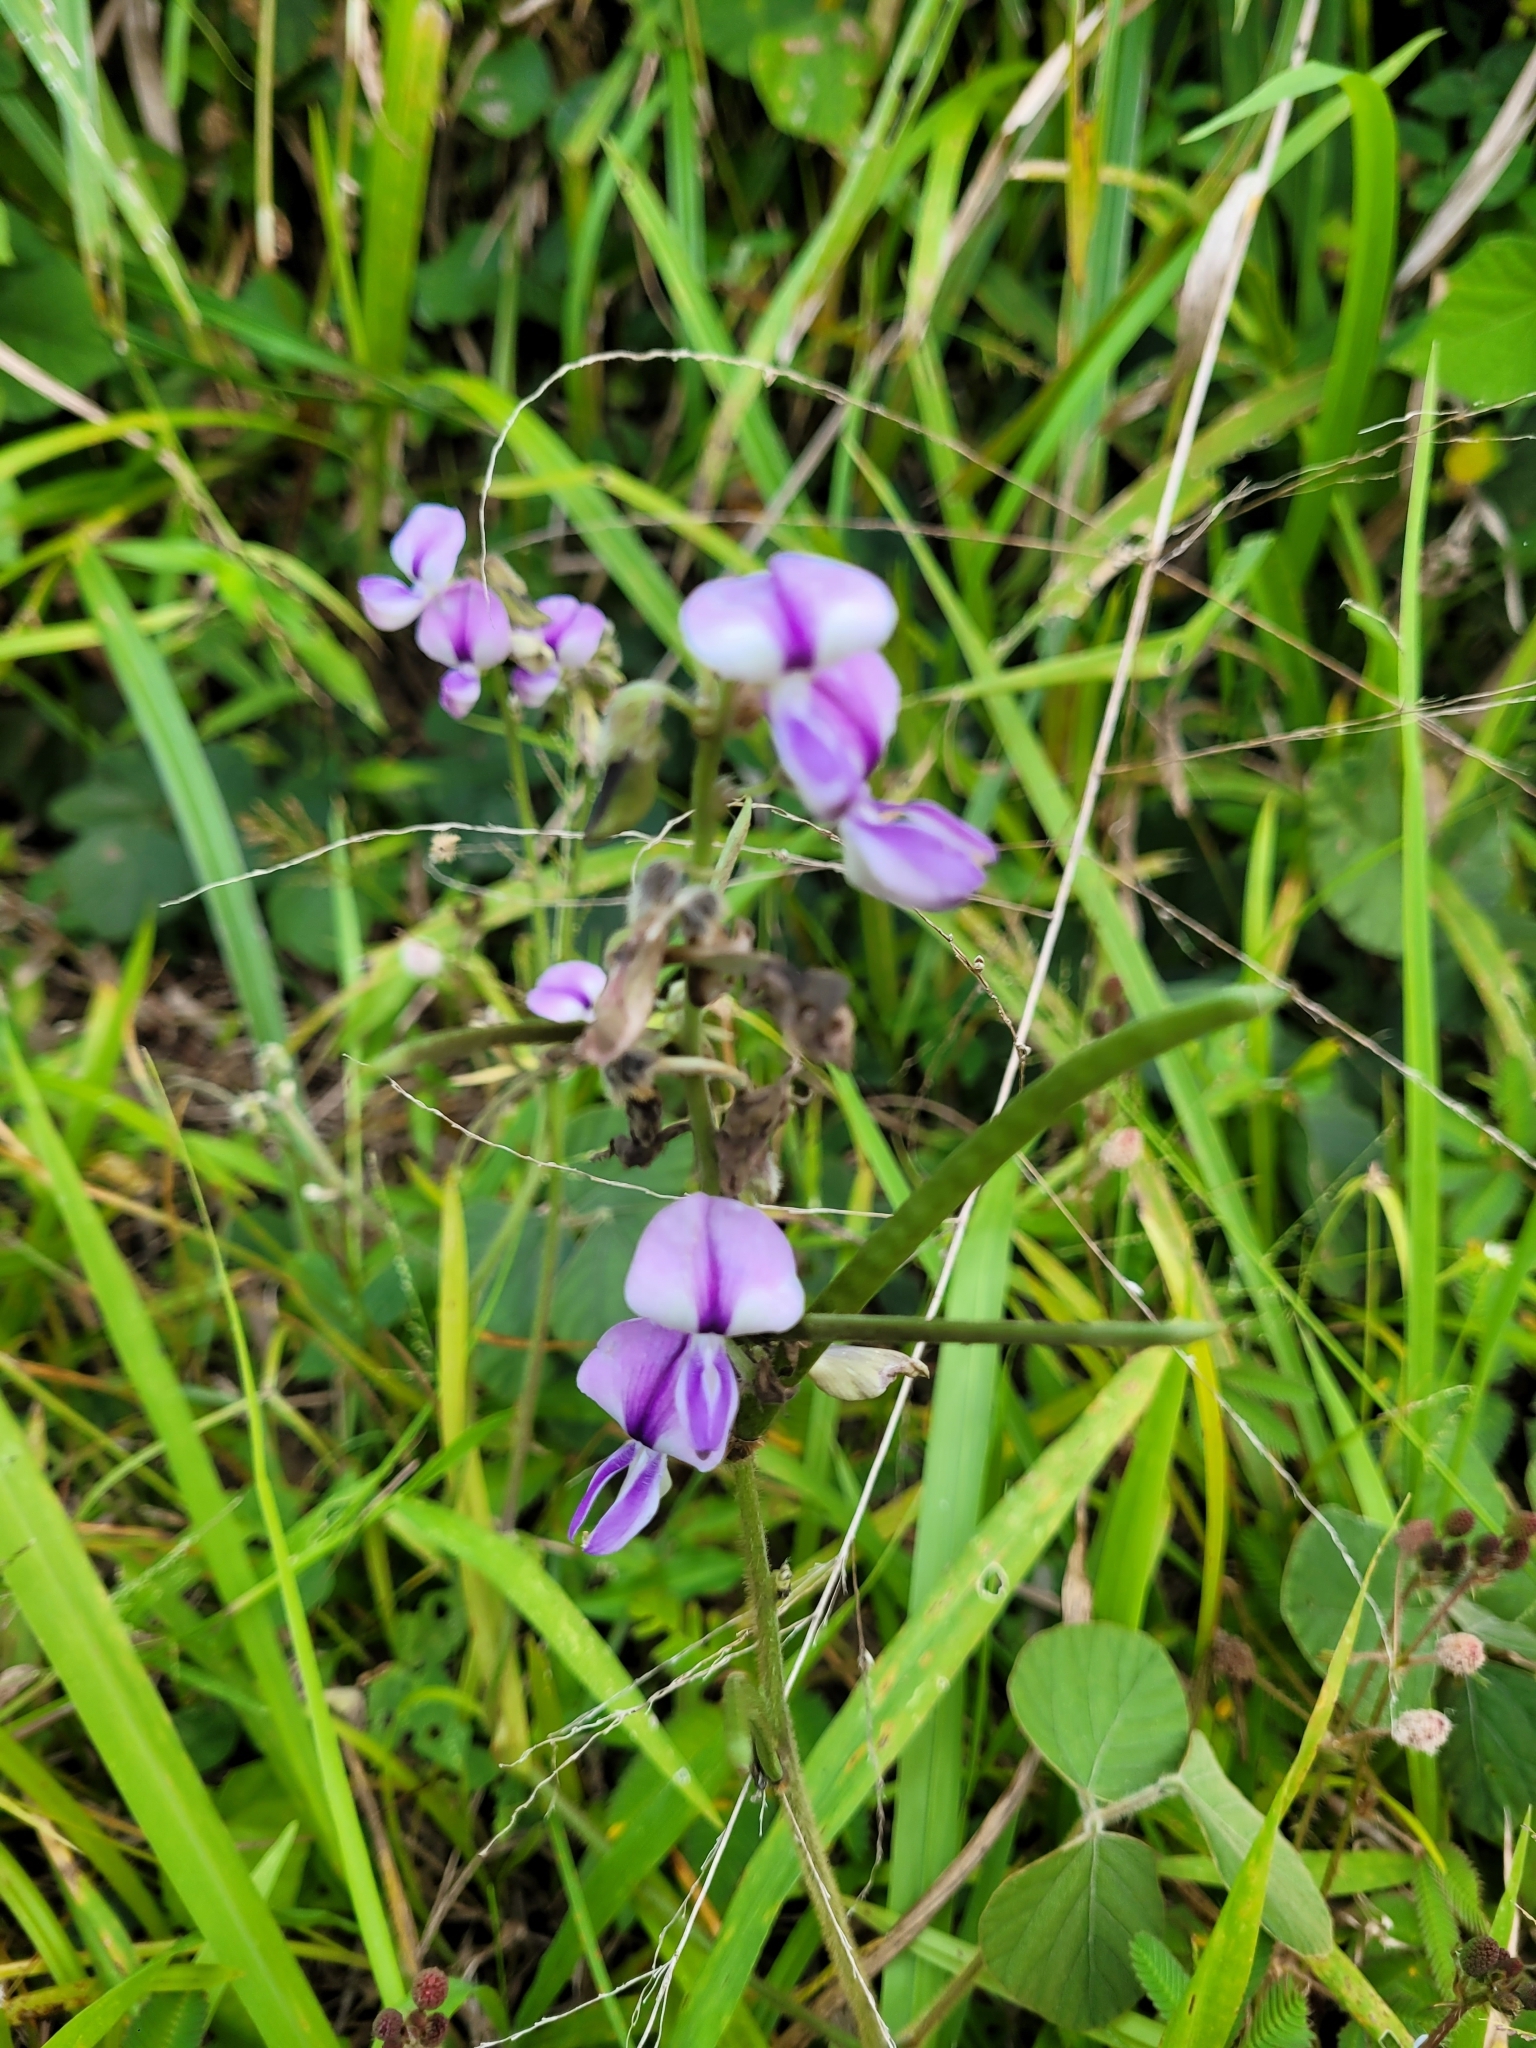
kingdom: Plantae
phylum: Tracheophyta
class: Magnoliopsida
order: Fabales
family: Fabaceae
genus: Neustanthus
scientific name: Neustanthus phaseoloides
